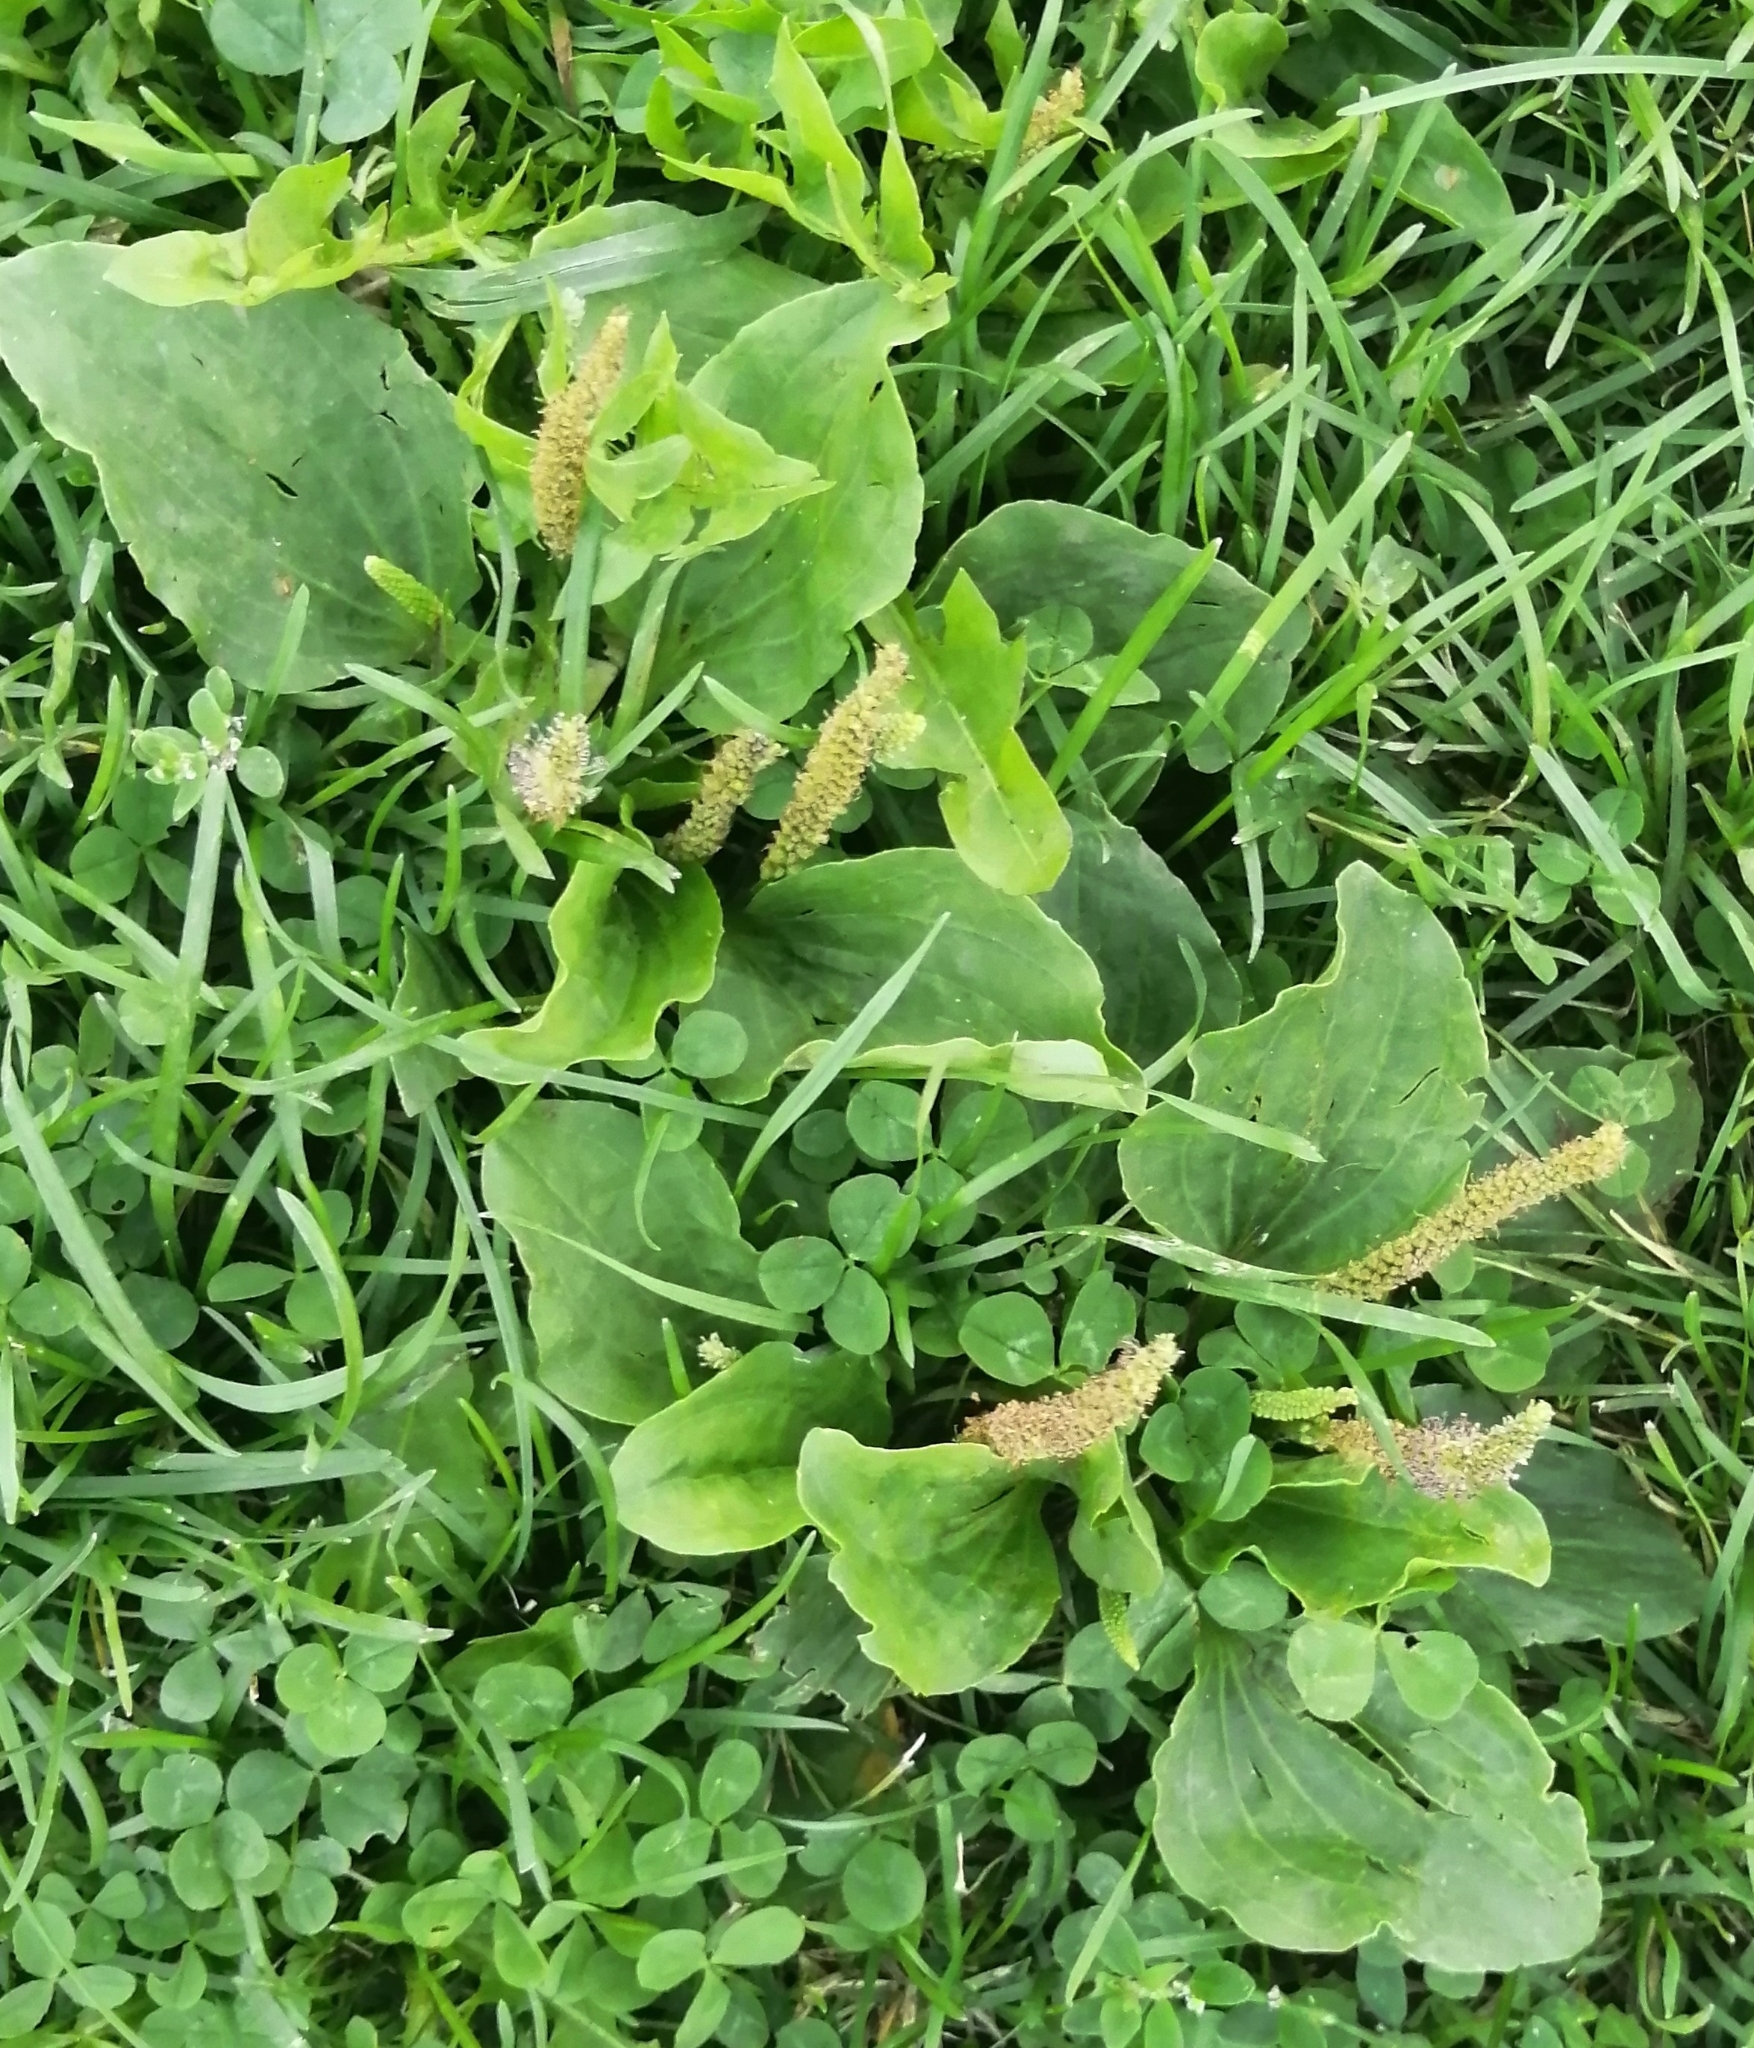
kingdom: Plantae
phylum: Tracheophyta
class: Magnoliopsida
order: Lamiales
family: Plantaginaceae
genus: Plantago
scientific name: Plantago major
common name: Common plantain
